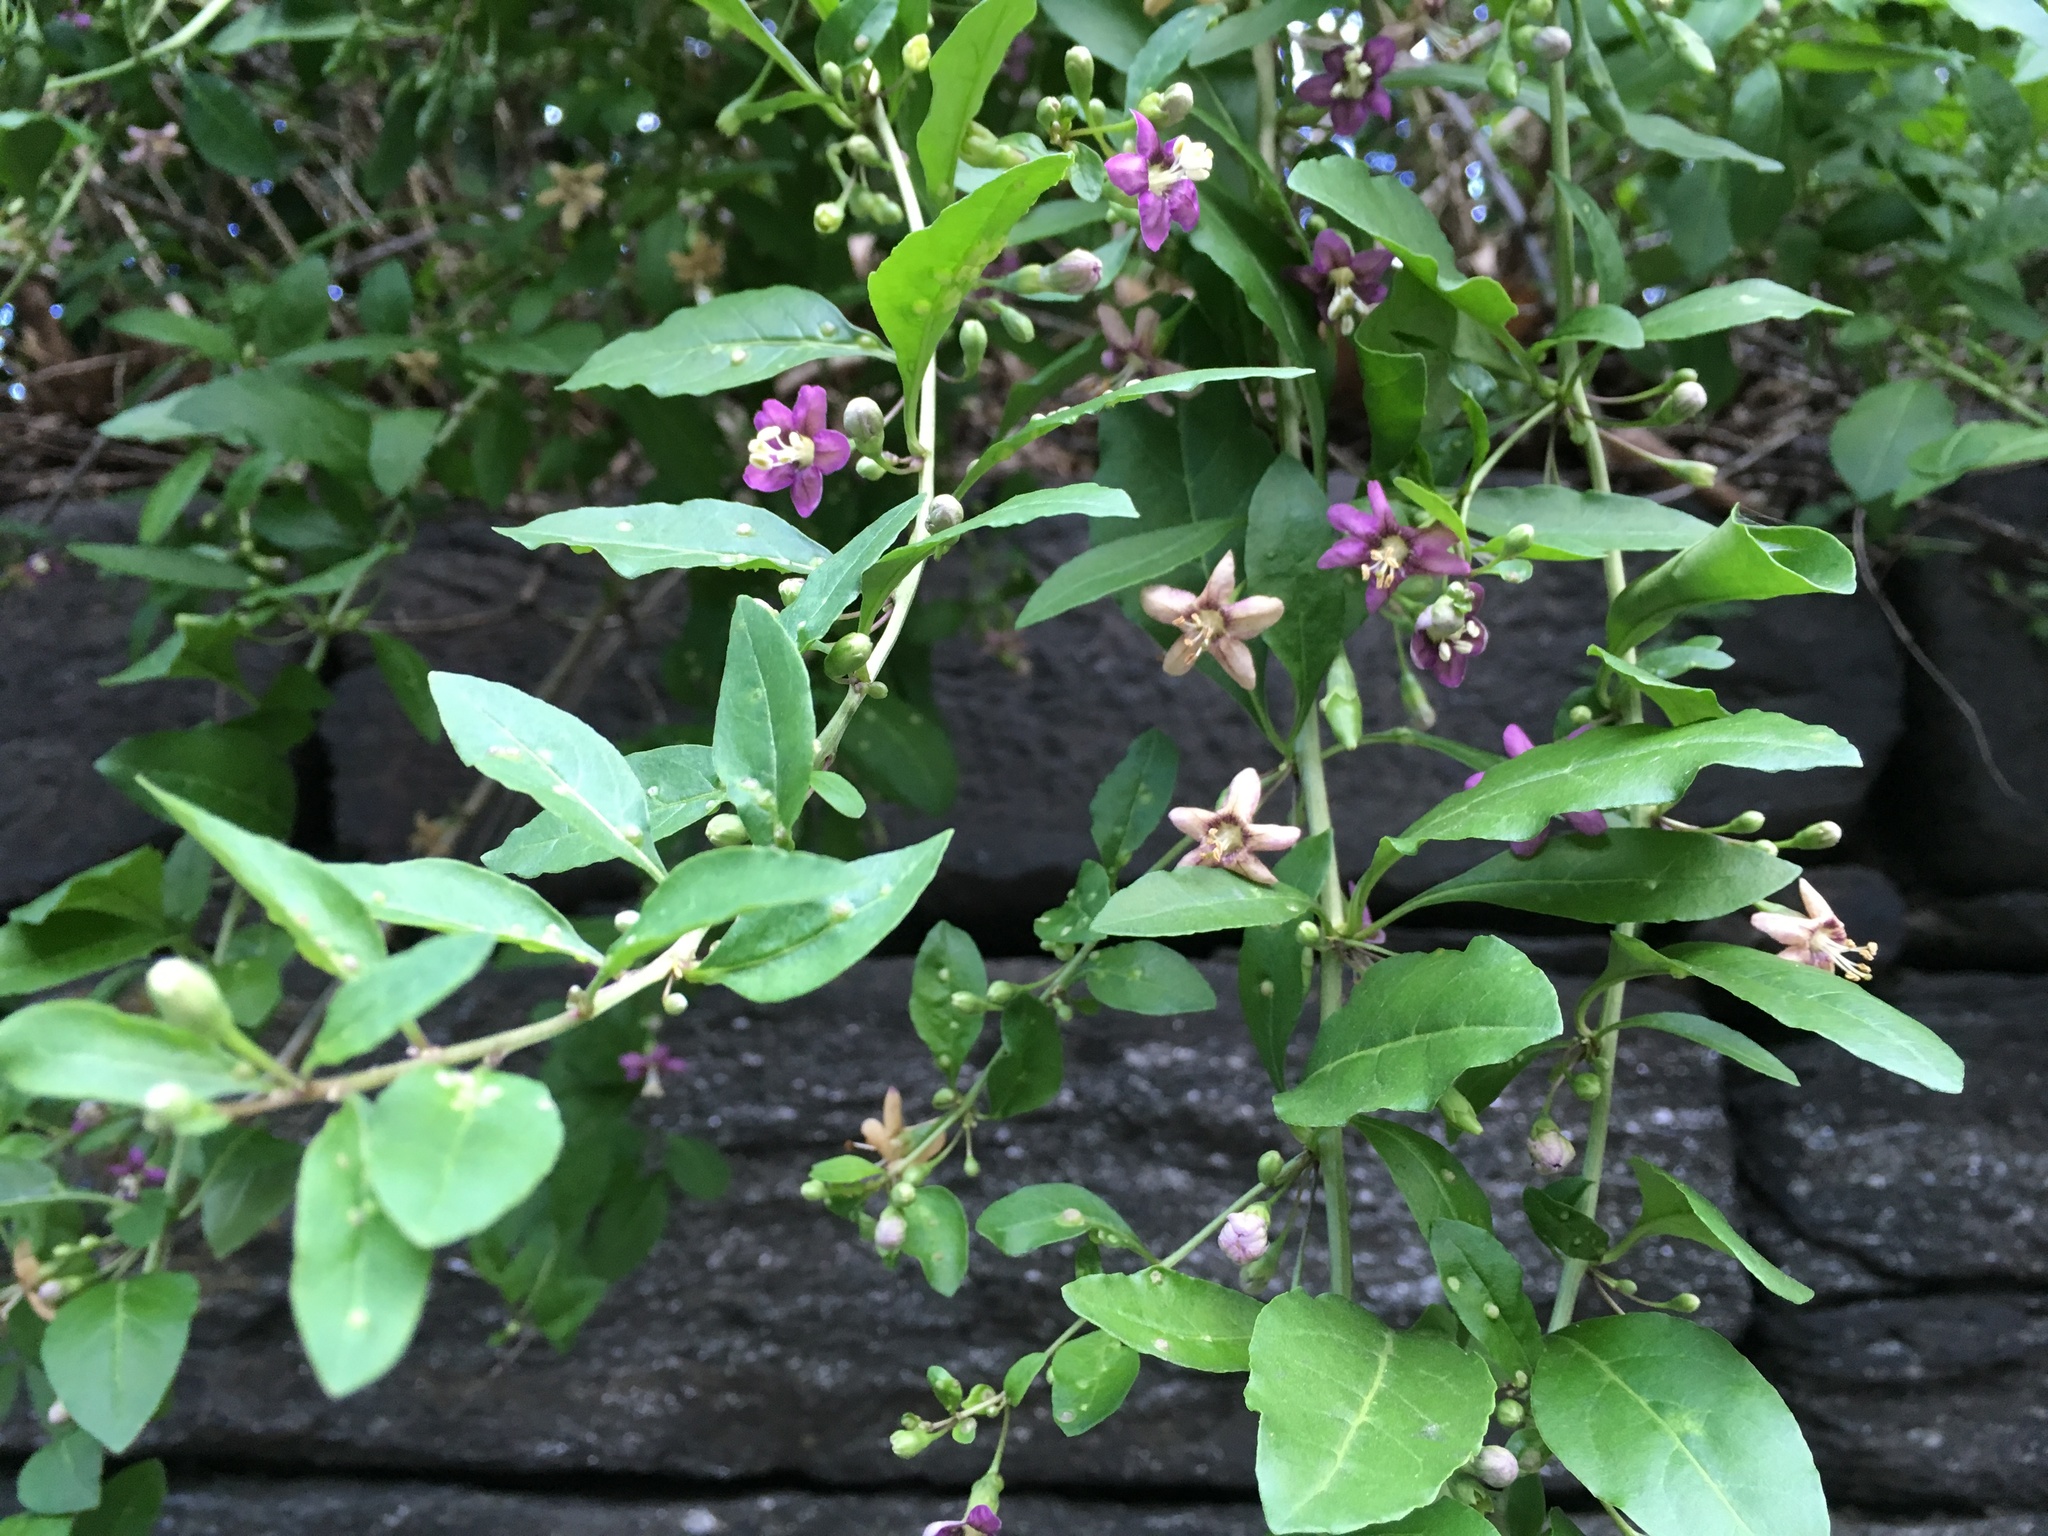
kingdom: Plantae
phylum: Tracheophyta
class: Magnoliopsida
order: Solanales
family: Solanaceae
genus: Lycium
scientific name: Lycium barbarum
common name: Duke of argyll's teaplant
